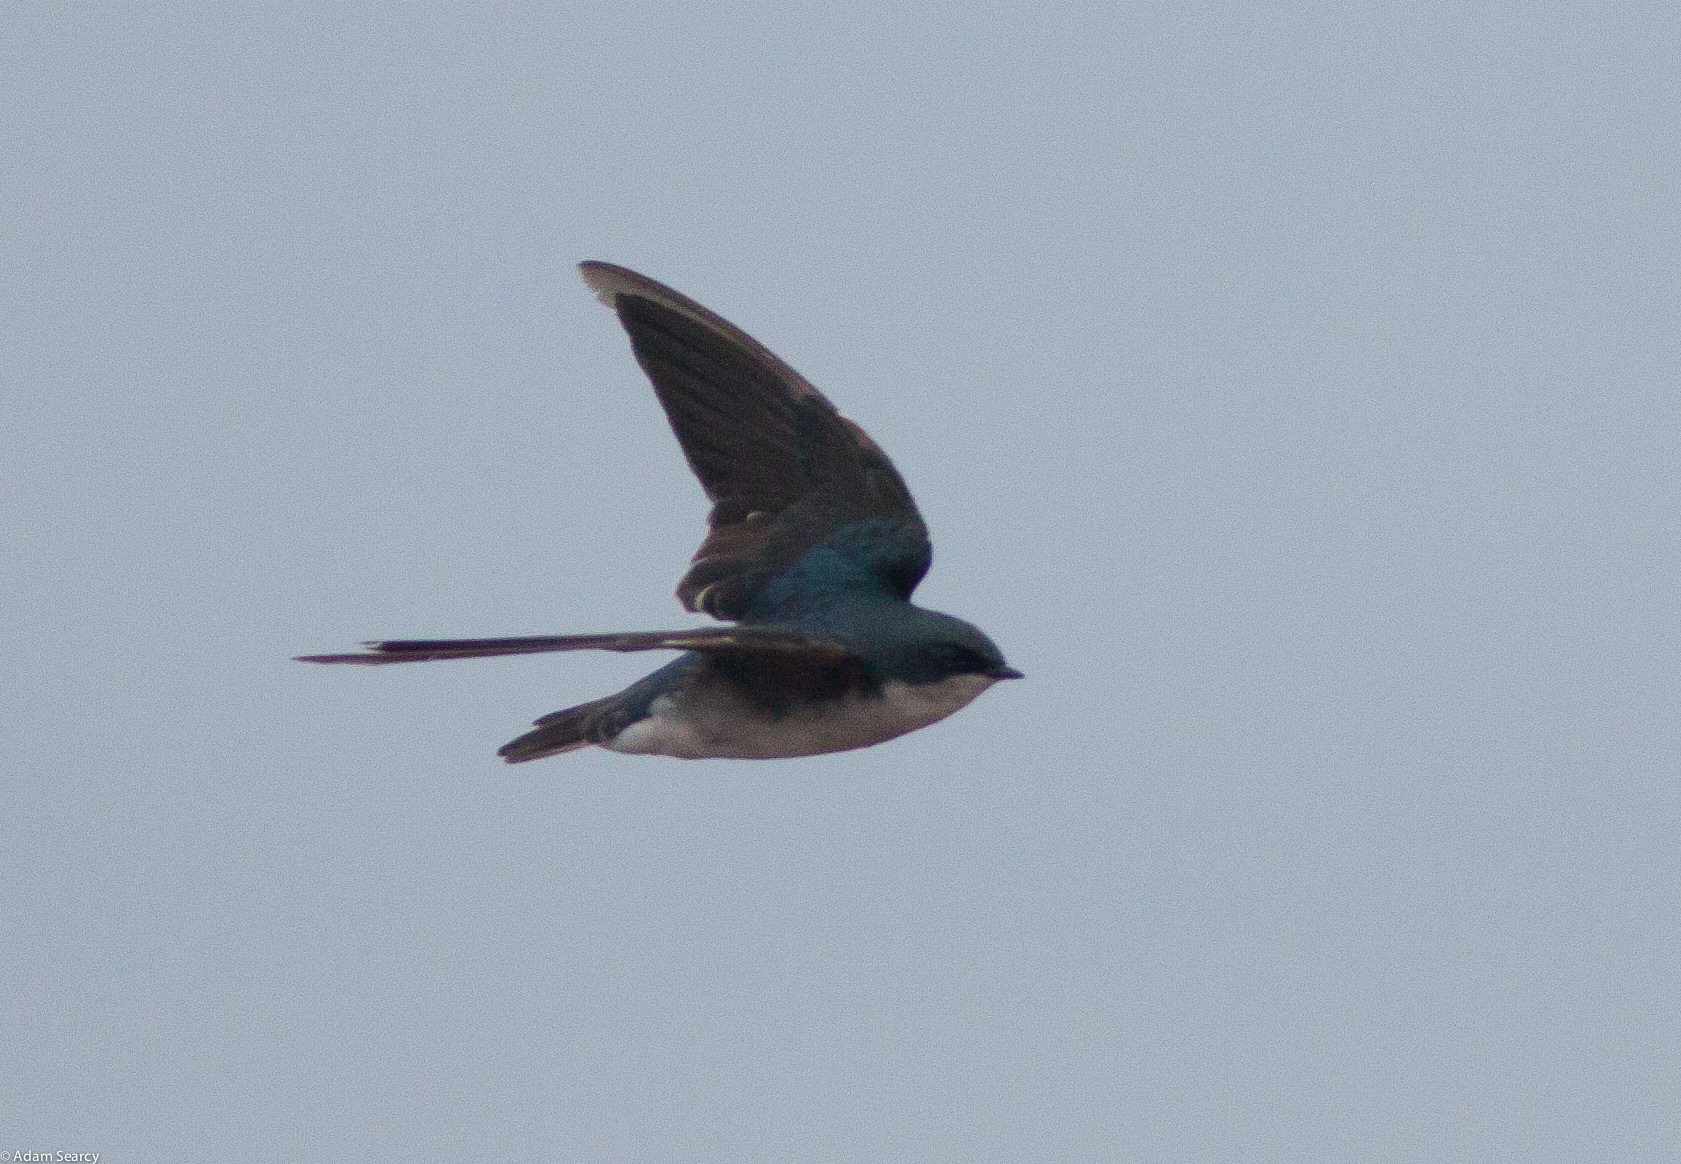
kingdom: Animalia
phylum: Chordata
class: Aves
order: Passeriformes
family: Hirundinidae
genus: Tachycineta
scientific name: Tachycineta bicolor
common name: Tree swallow
